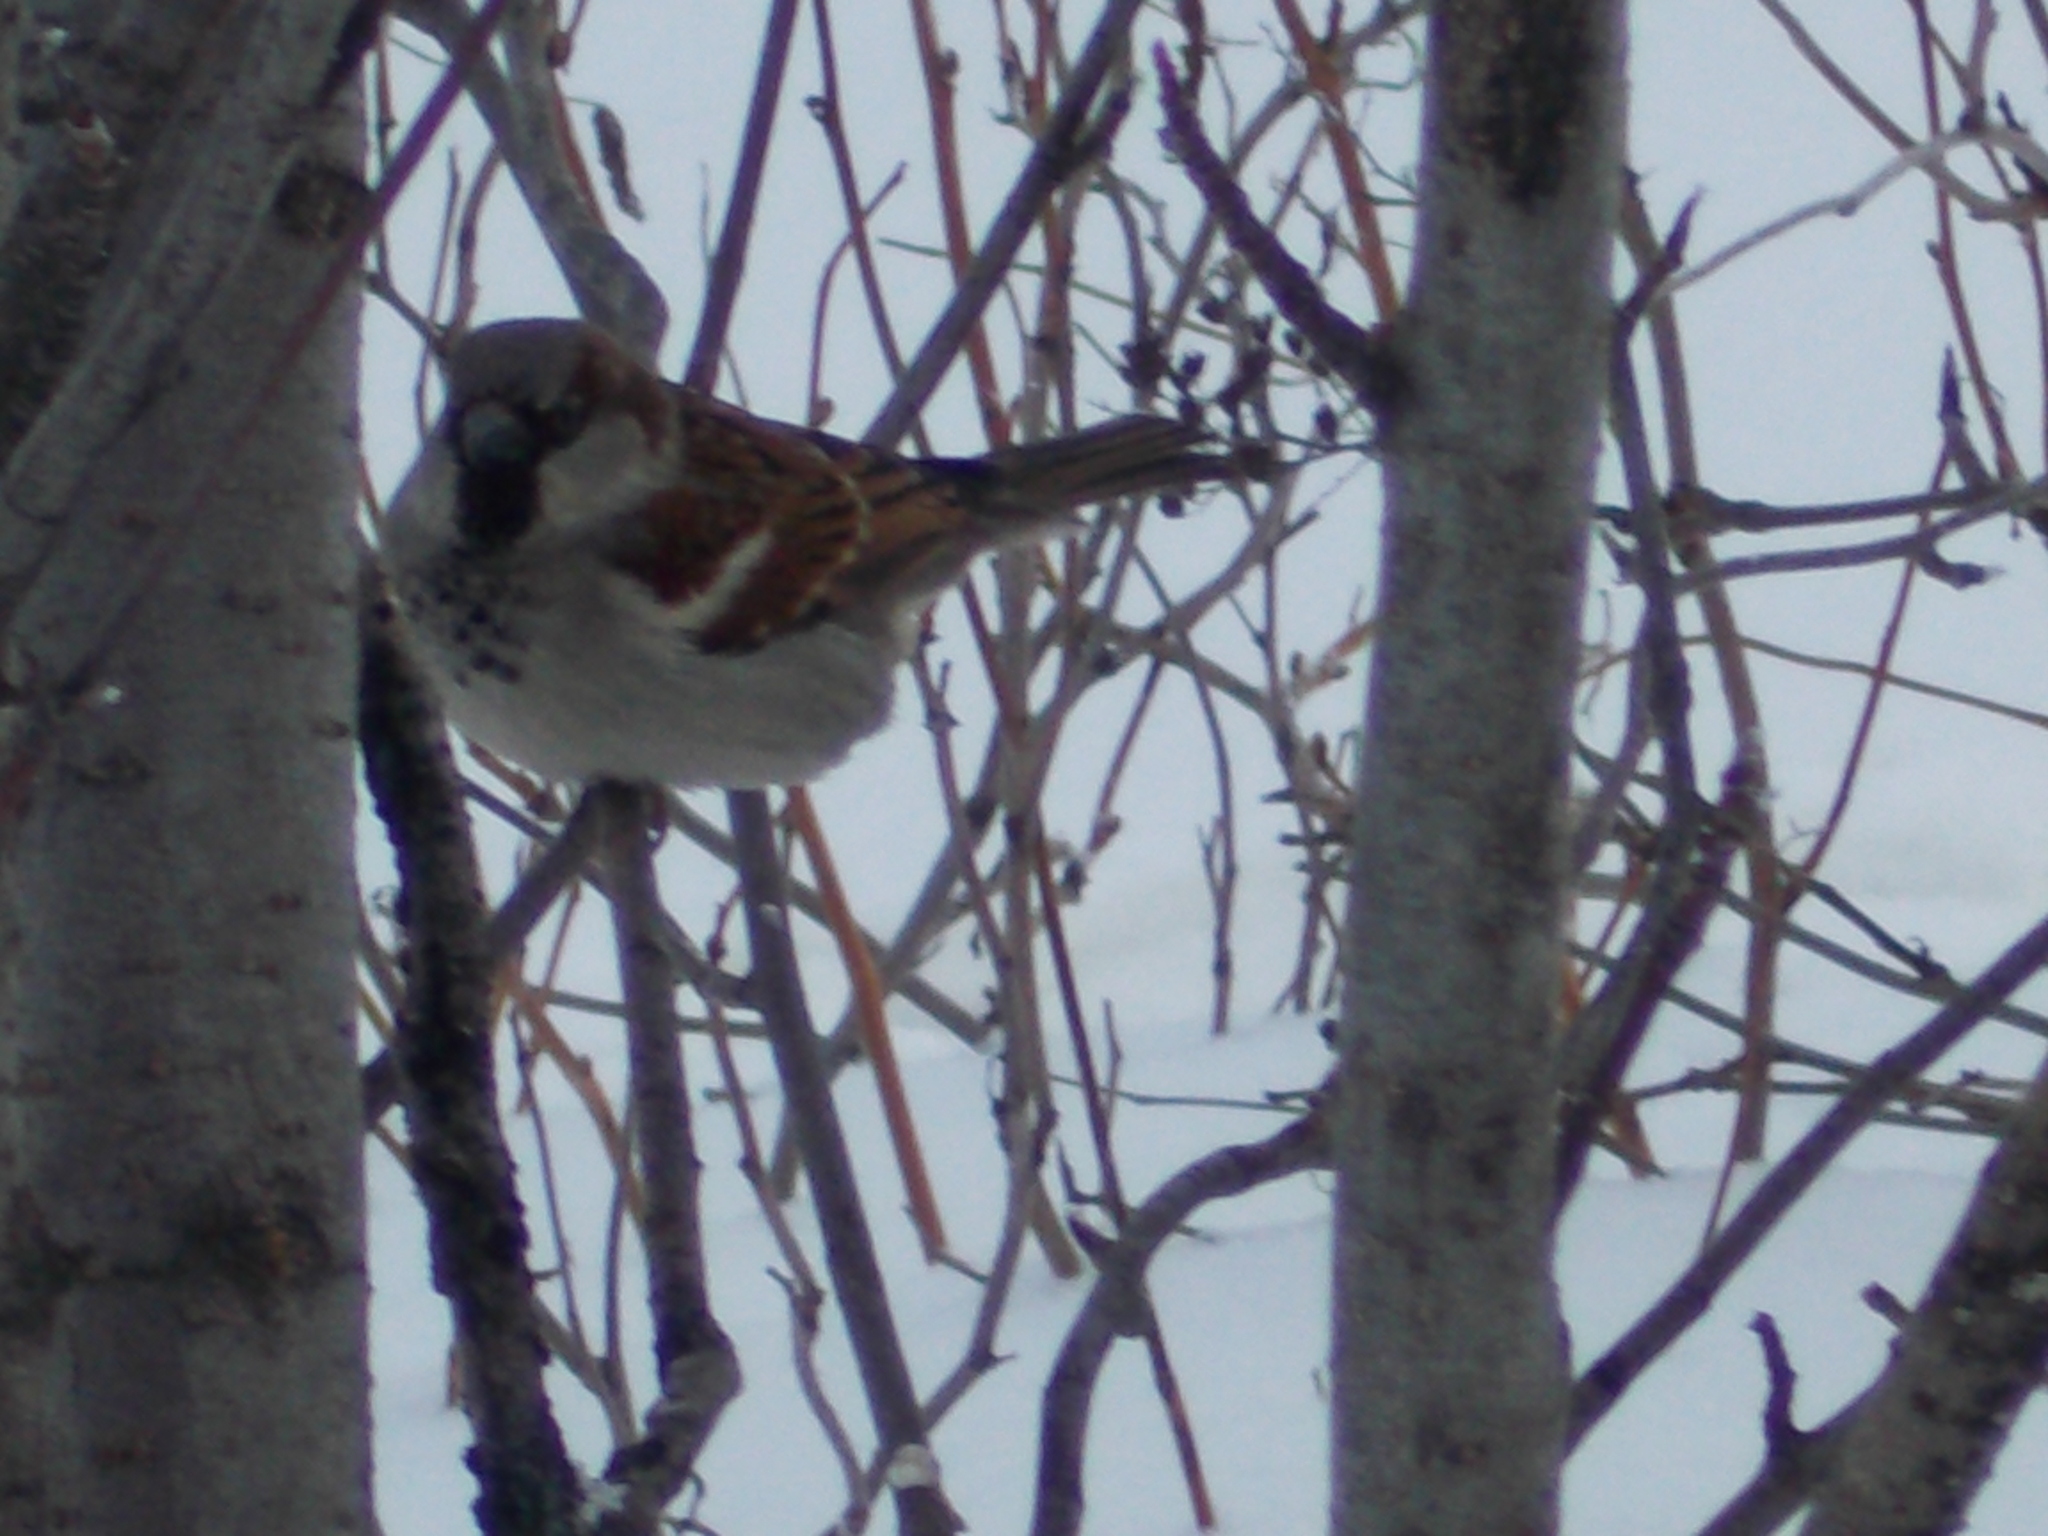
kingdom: Animalia
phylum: Chordata
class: Aves
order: Passeriformes
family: Passeridae
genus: Passer
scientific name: Passer domesticus
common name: House sparrow
